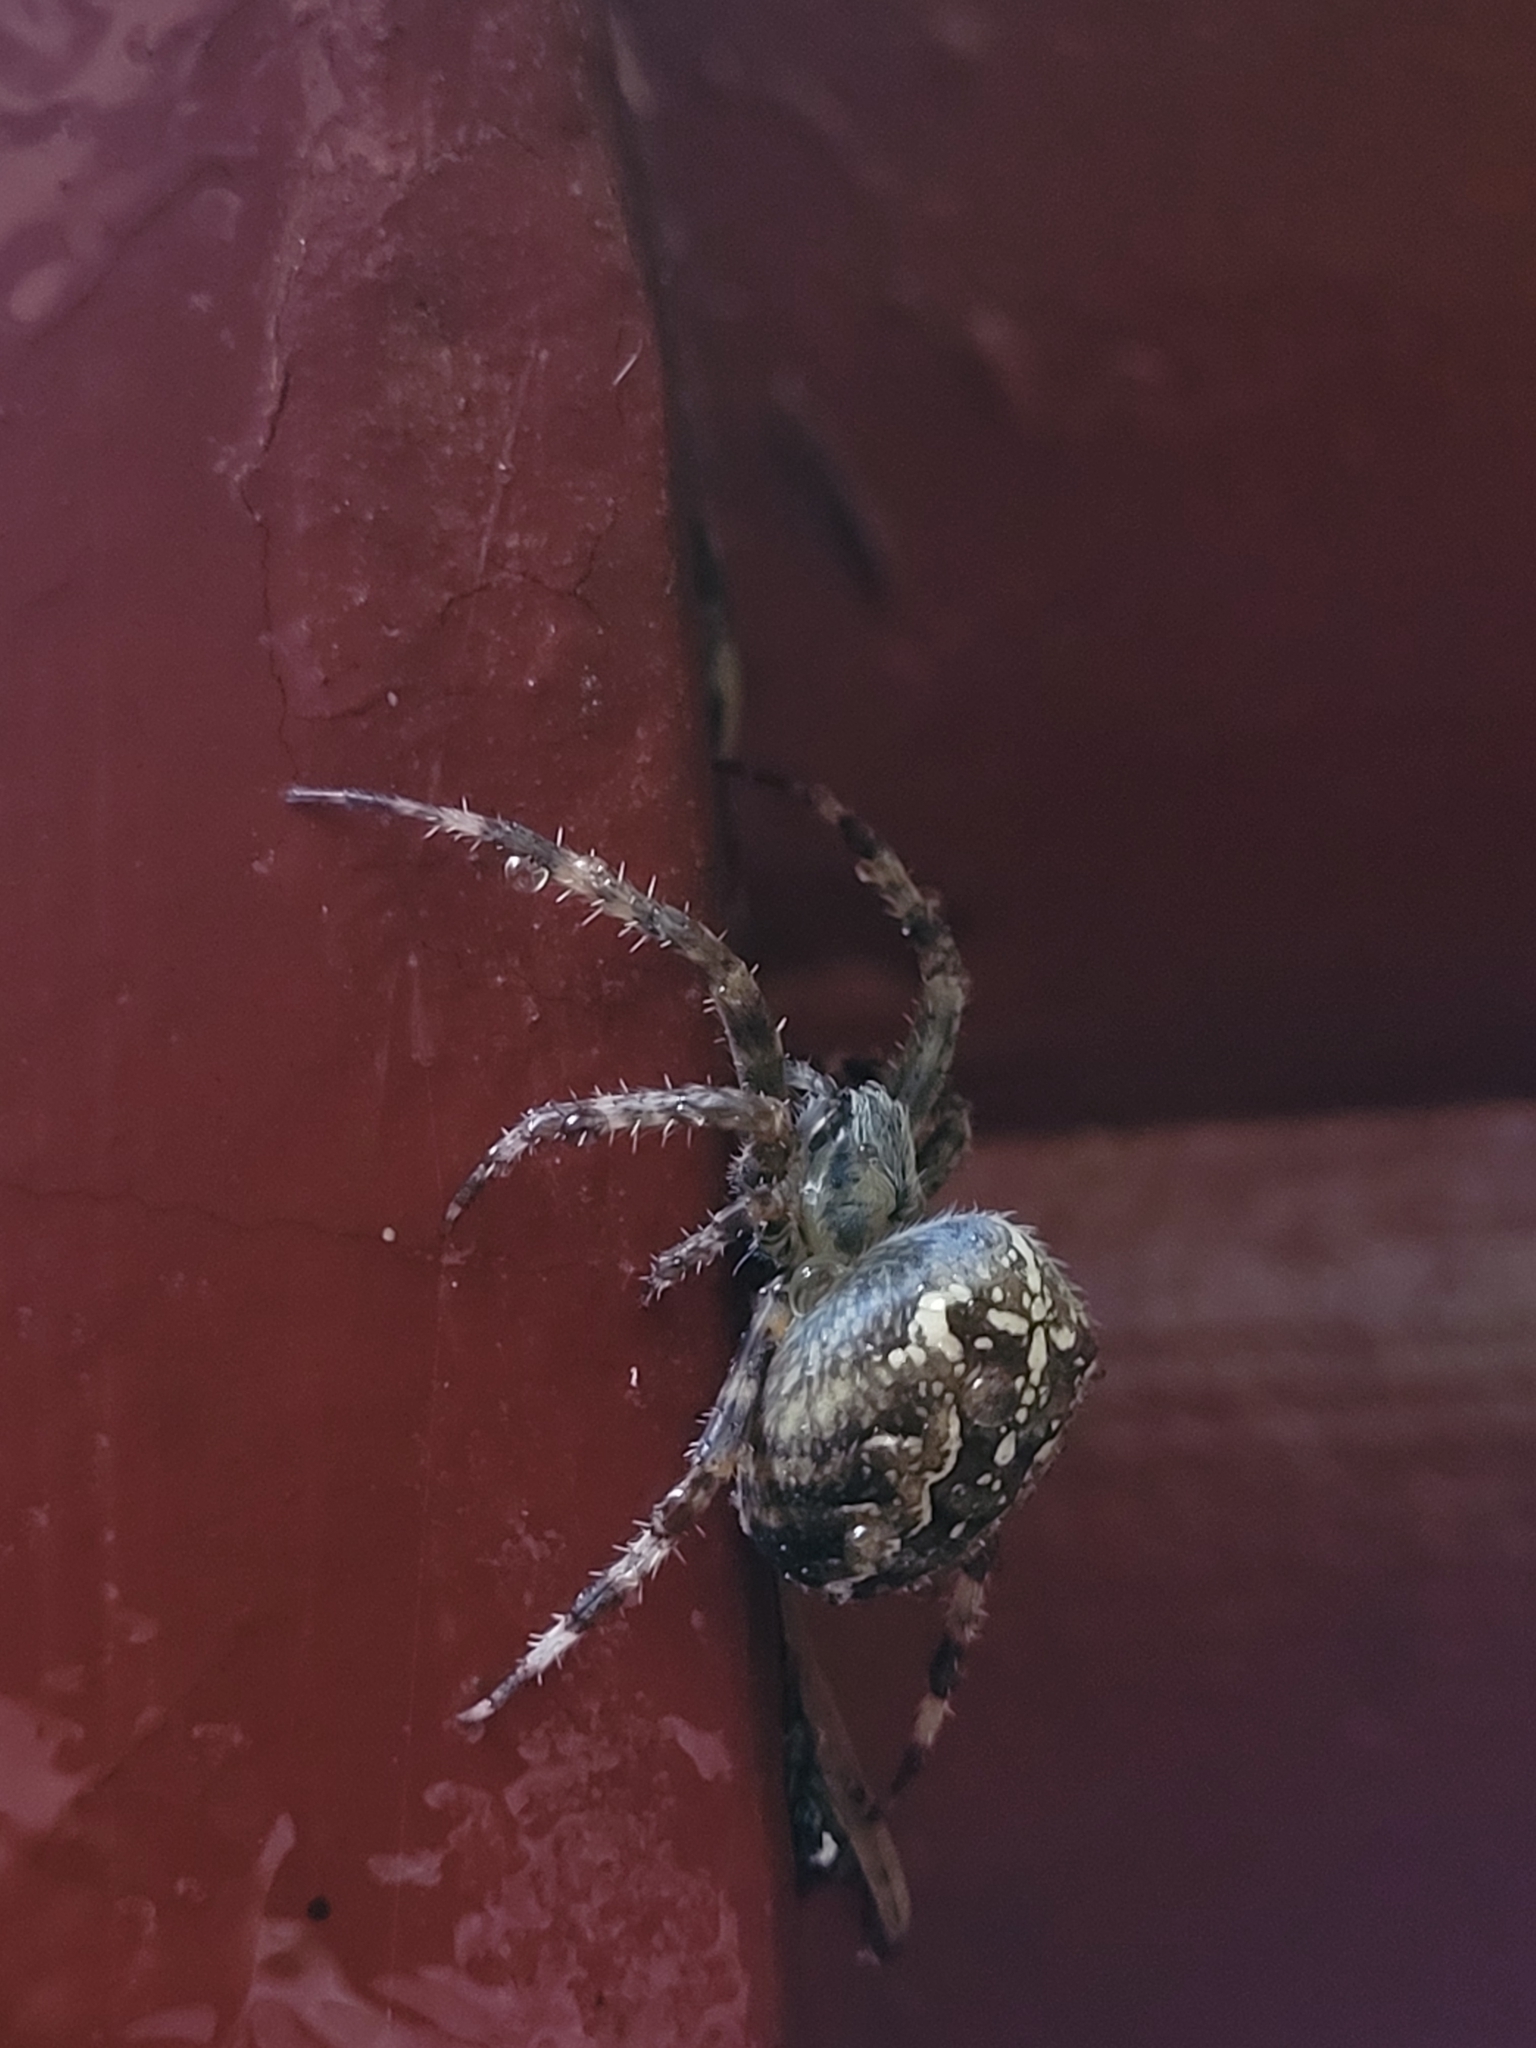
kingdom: Animalia
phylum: Arthropoda
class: Arachnida
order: Araneae
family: Araneidae
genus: Araneus
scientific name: Araneus diadematus
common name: Cross orbweaver
